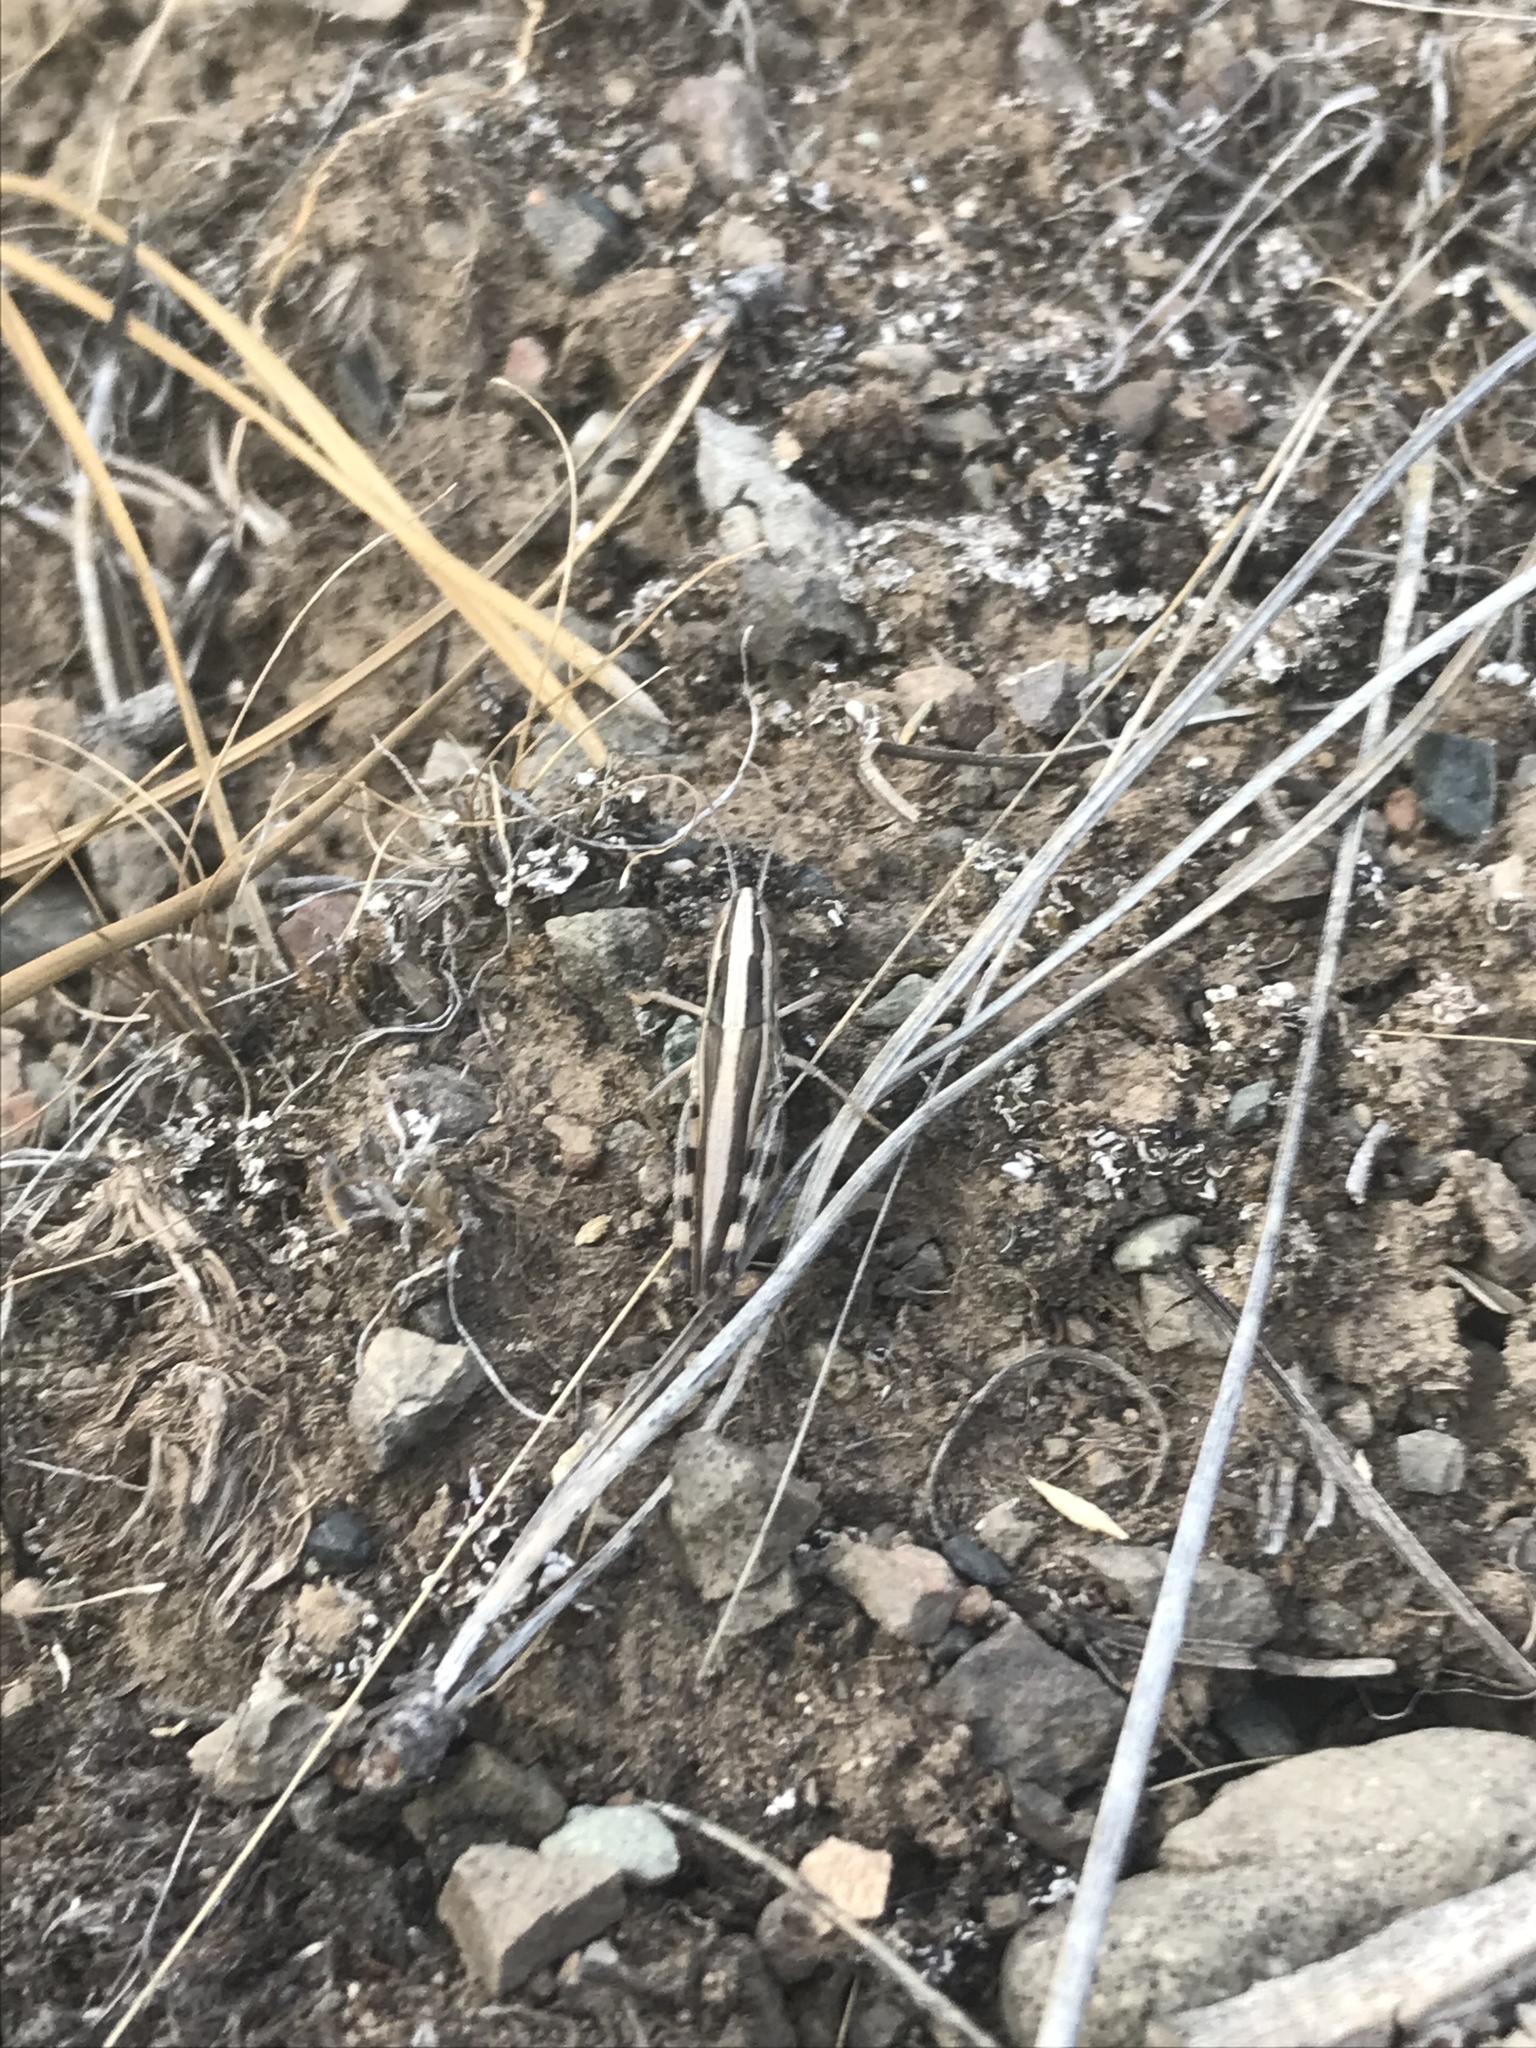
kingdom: Animalia
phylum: Arthropoda
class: Insecta
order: Orthoptera
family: Acrididae
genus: Amphitornus
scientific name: Amphitornus coloradus
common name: Striped grasshopper
